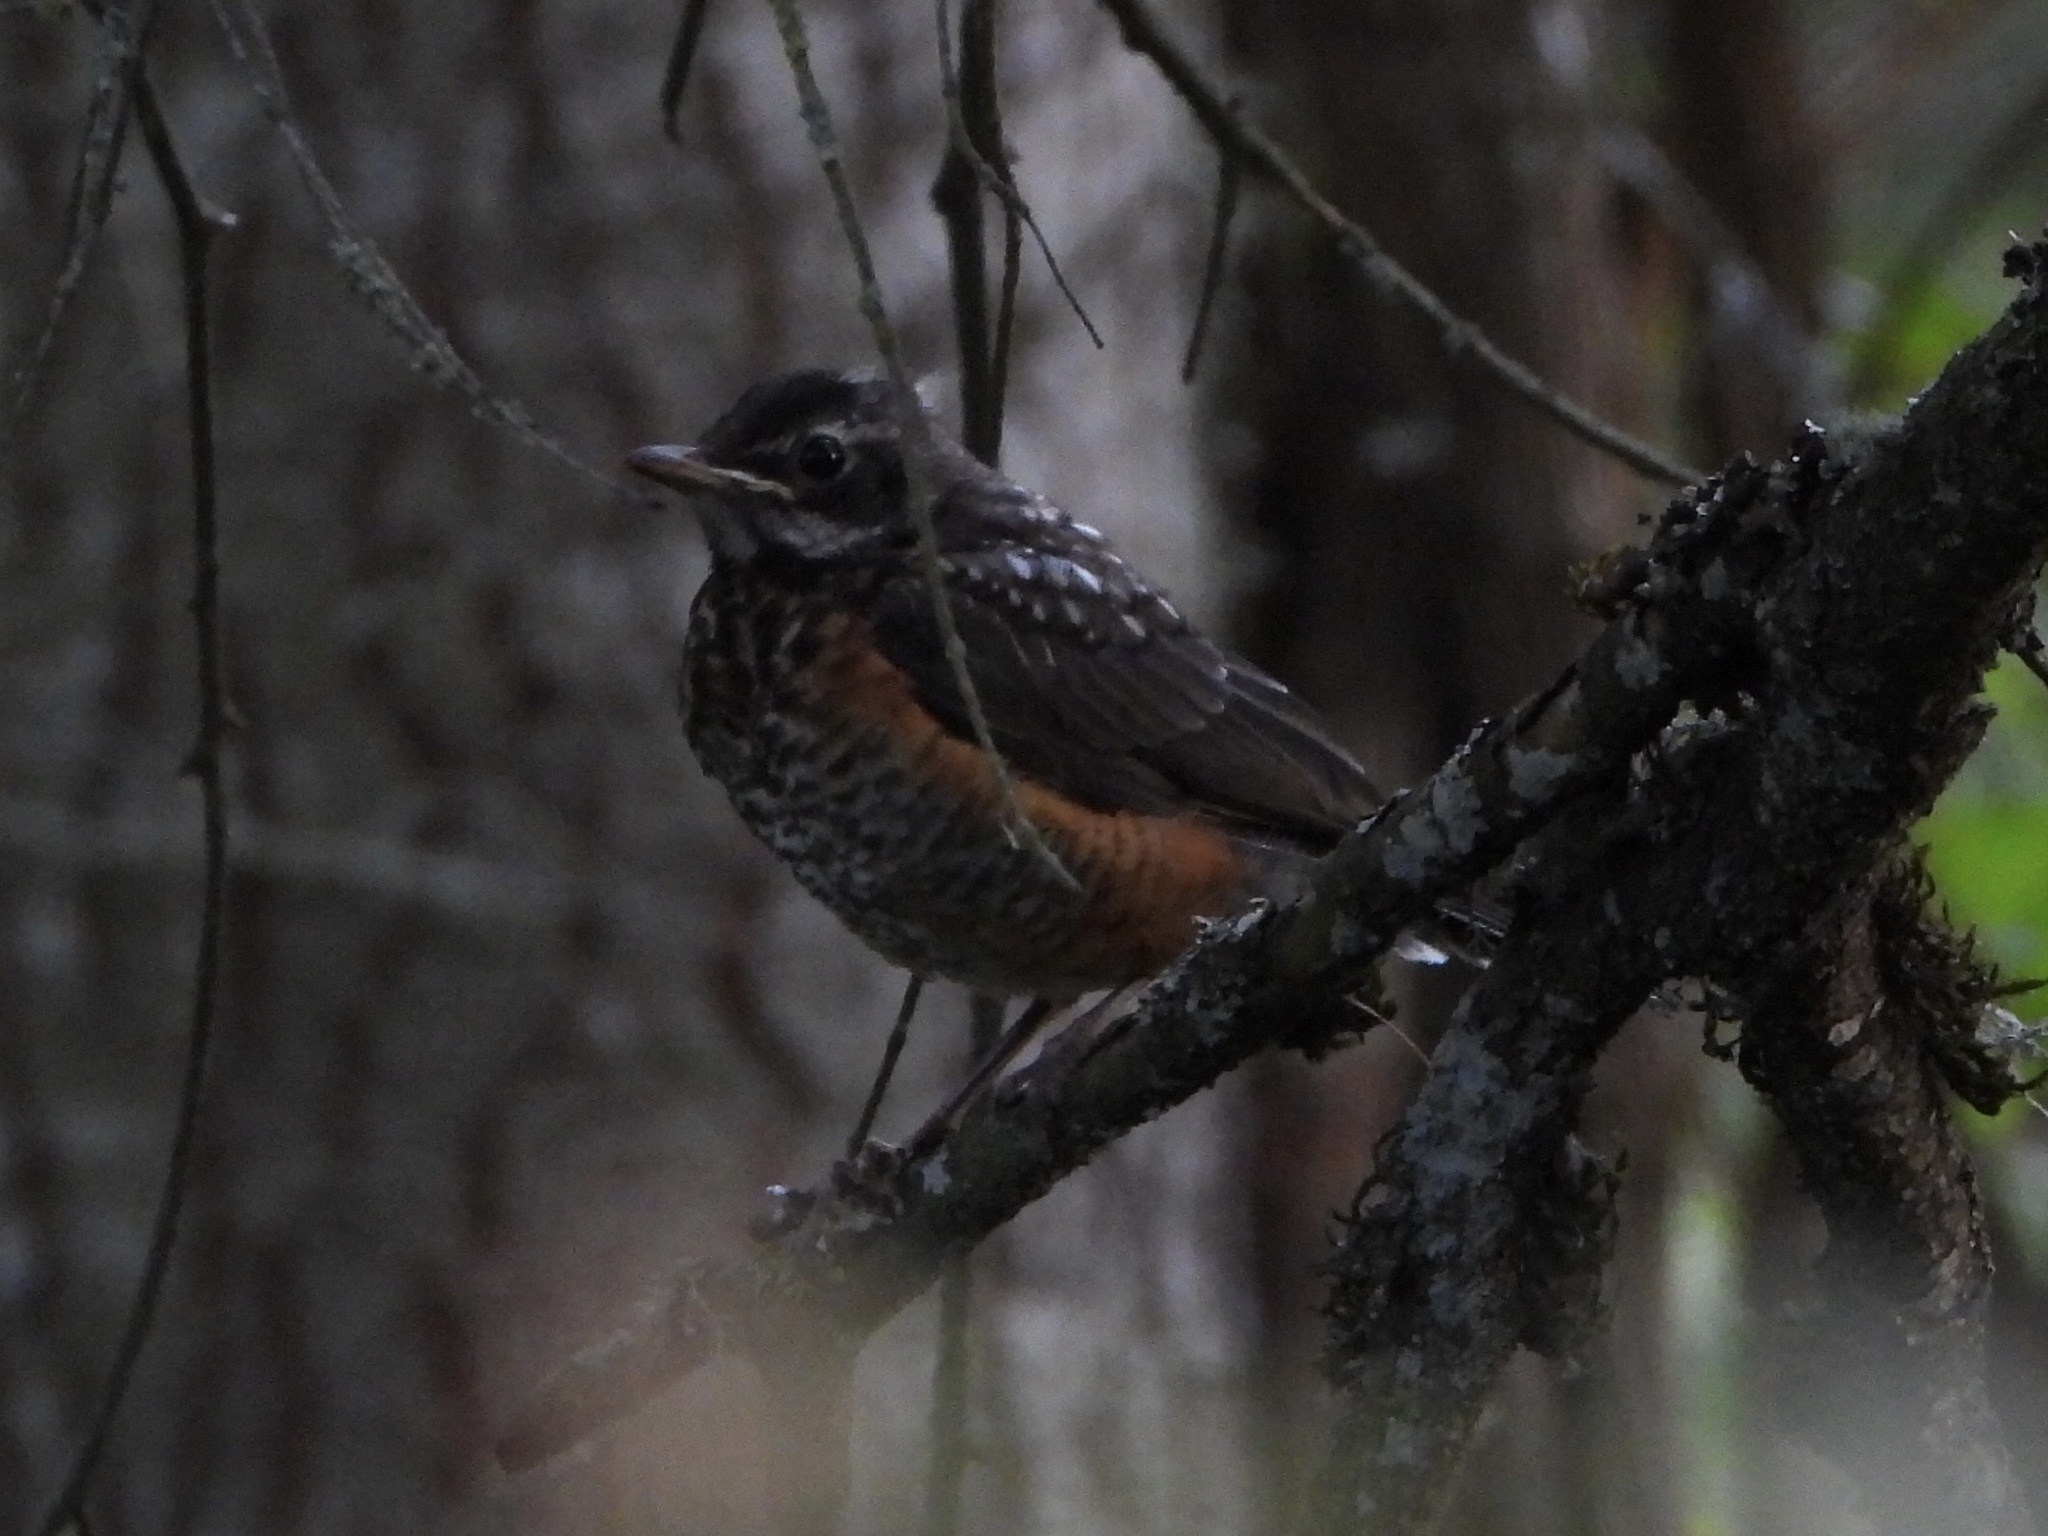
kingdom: Animalia
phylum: Chordata
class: Aves
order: Passeriformes
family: Turdidae
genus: Turdus
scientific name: Turdus migratorius
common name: American robin
